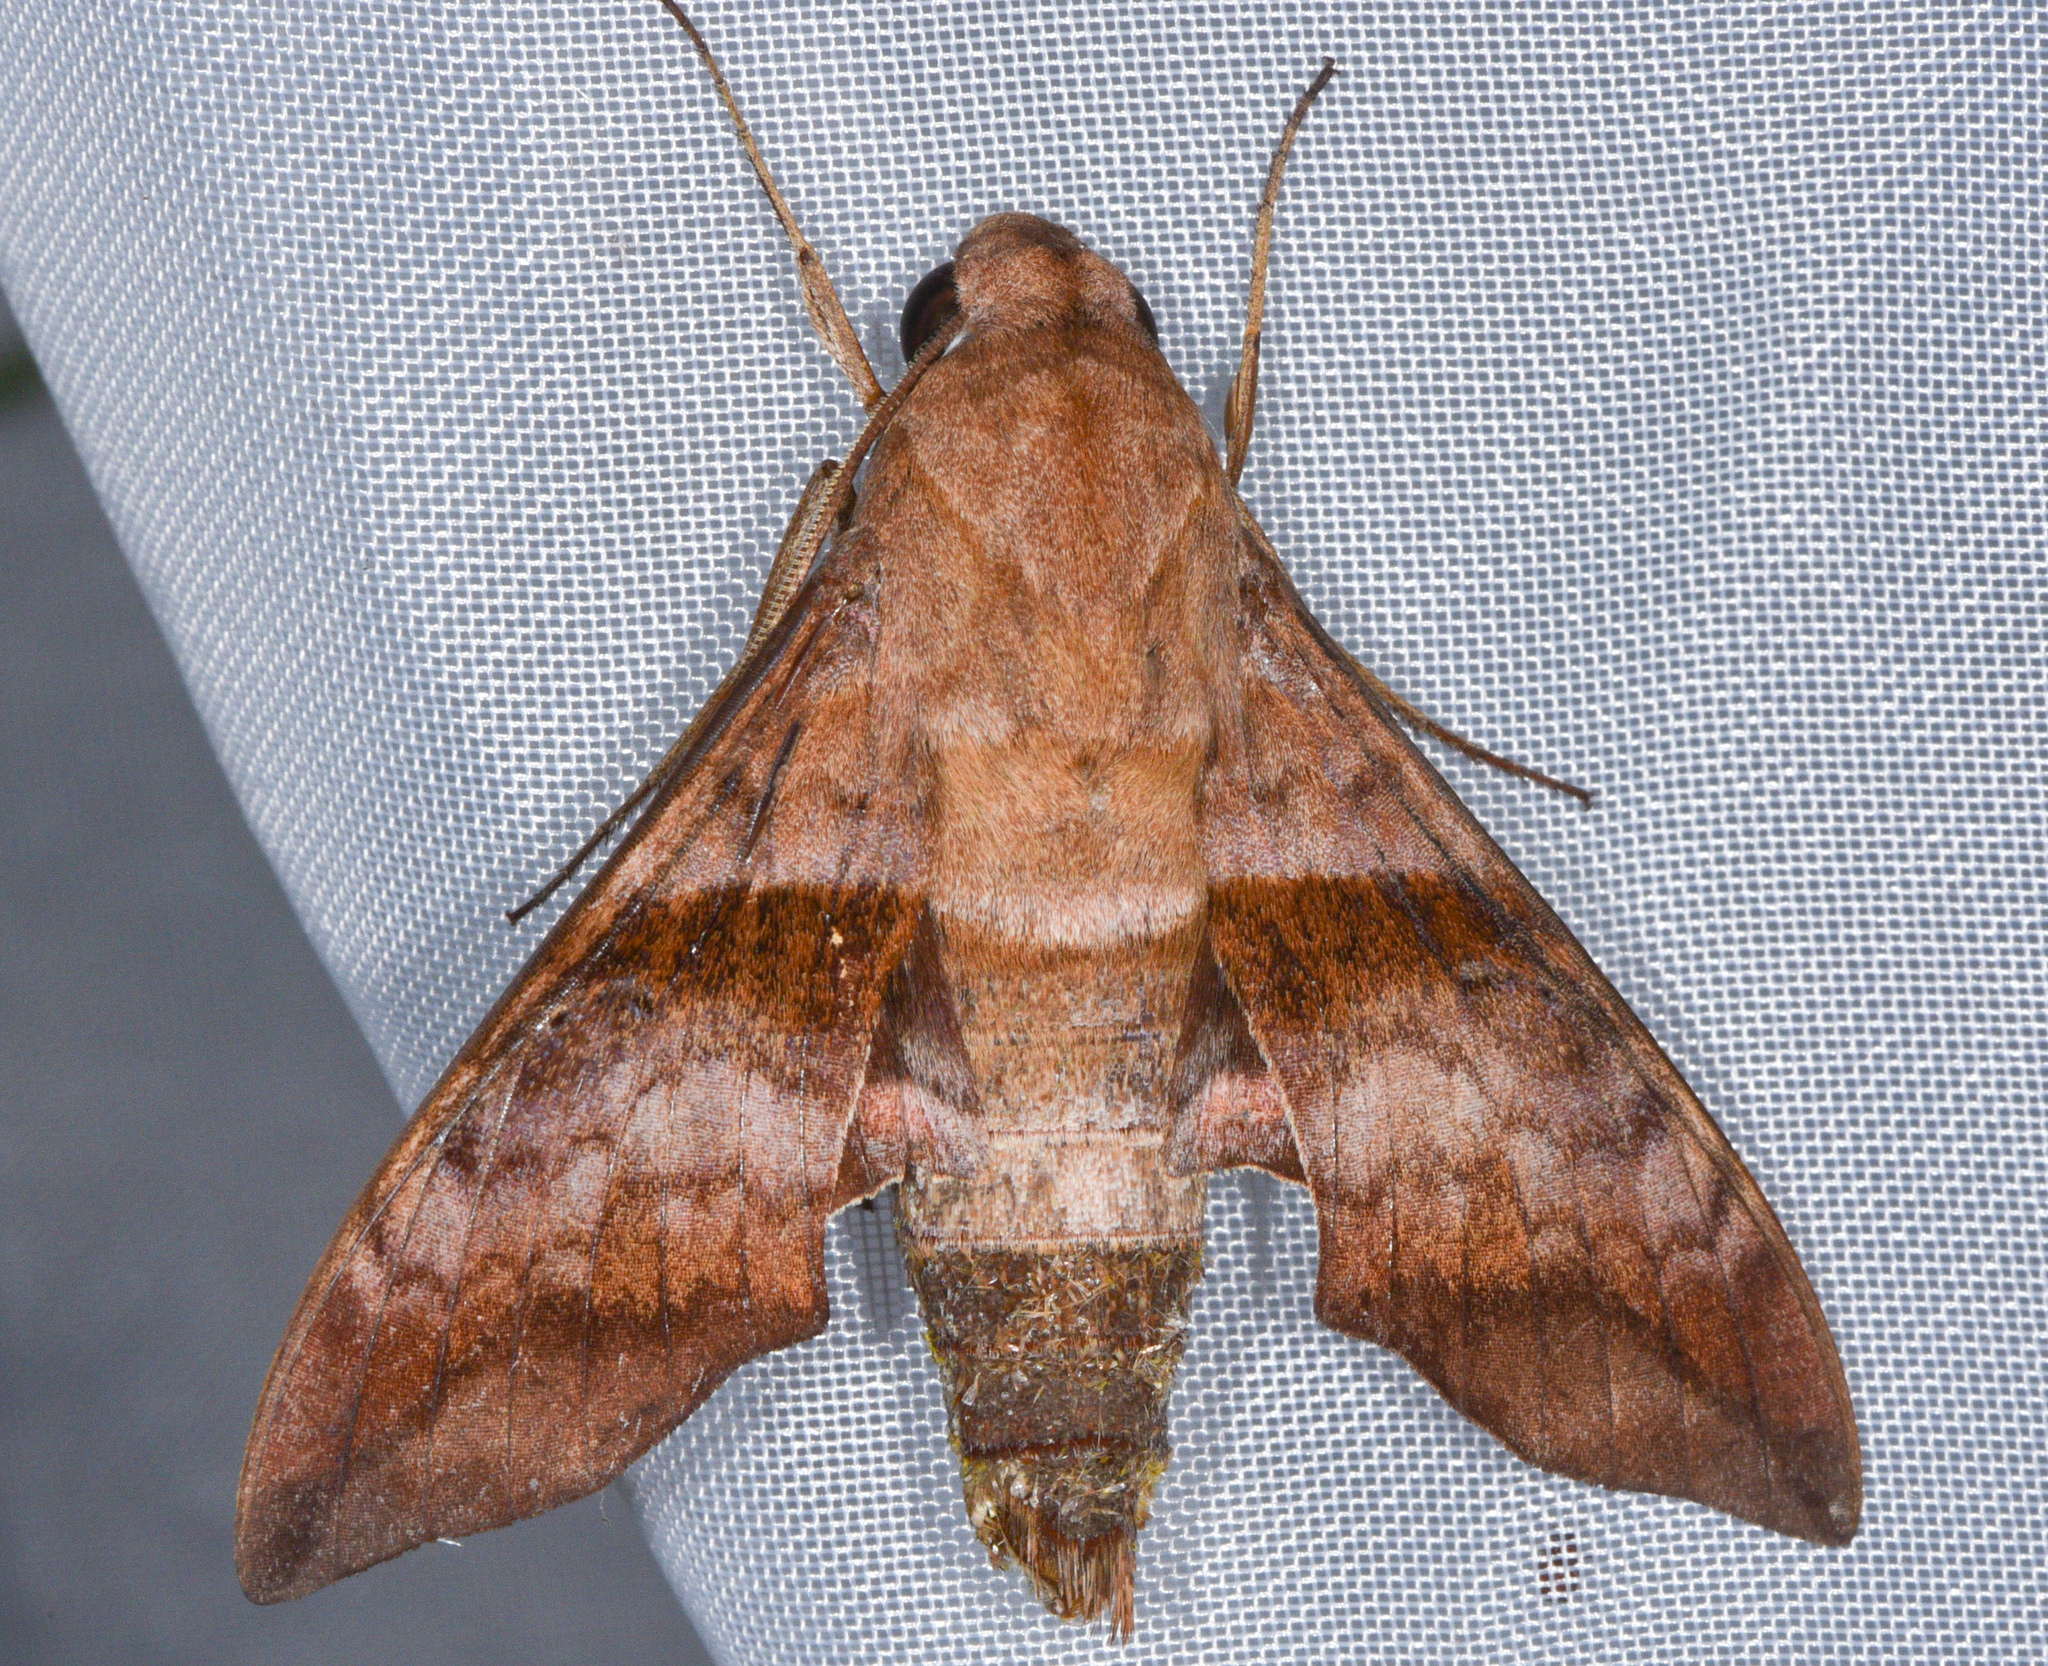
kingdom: Animalia
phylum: Arthropoda
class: Insecta
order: Lepidoptera
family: Sphingidae
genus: Perigonia
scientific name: Perigonia lusca
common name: Half-blind sphinx
